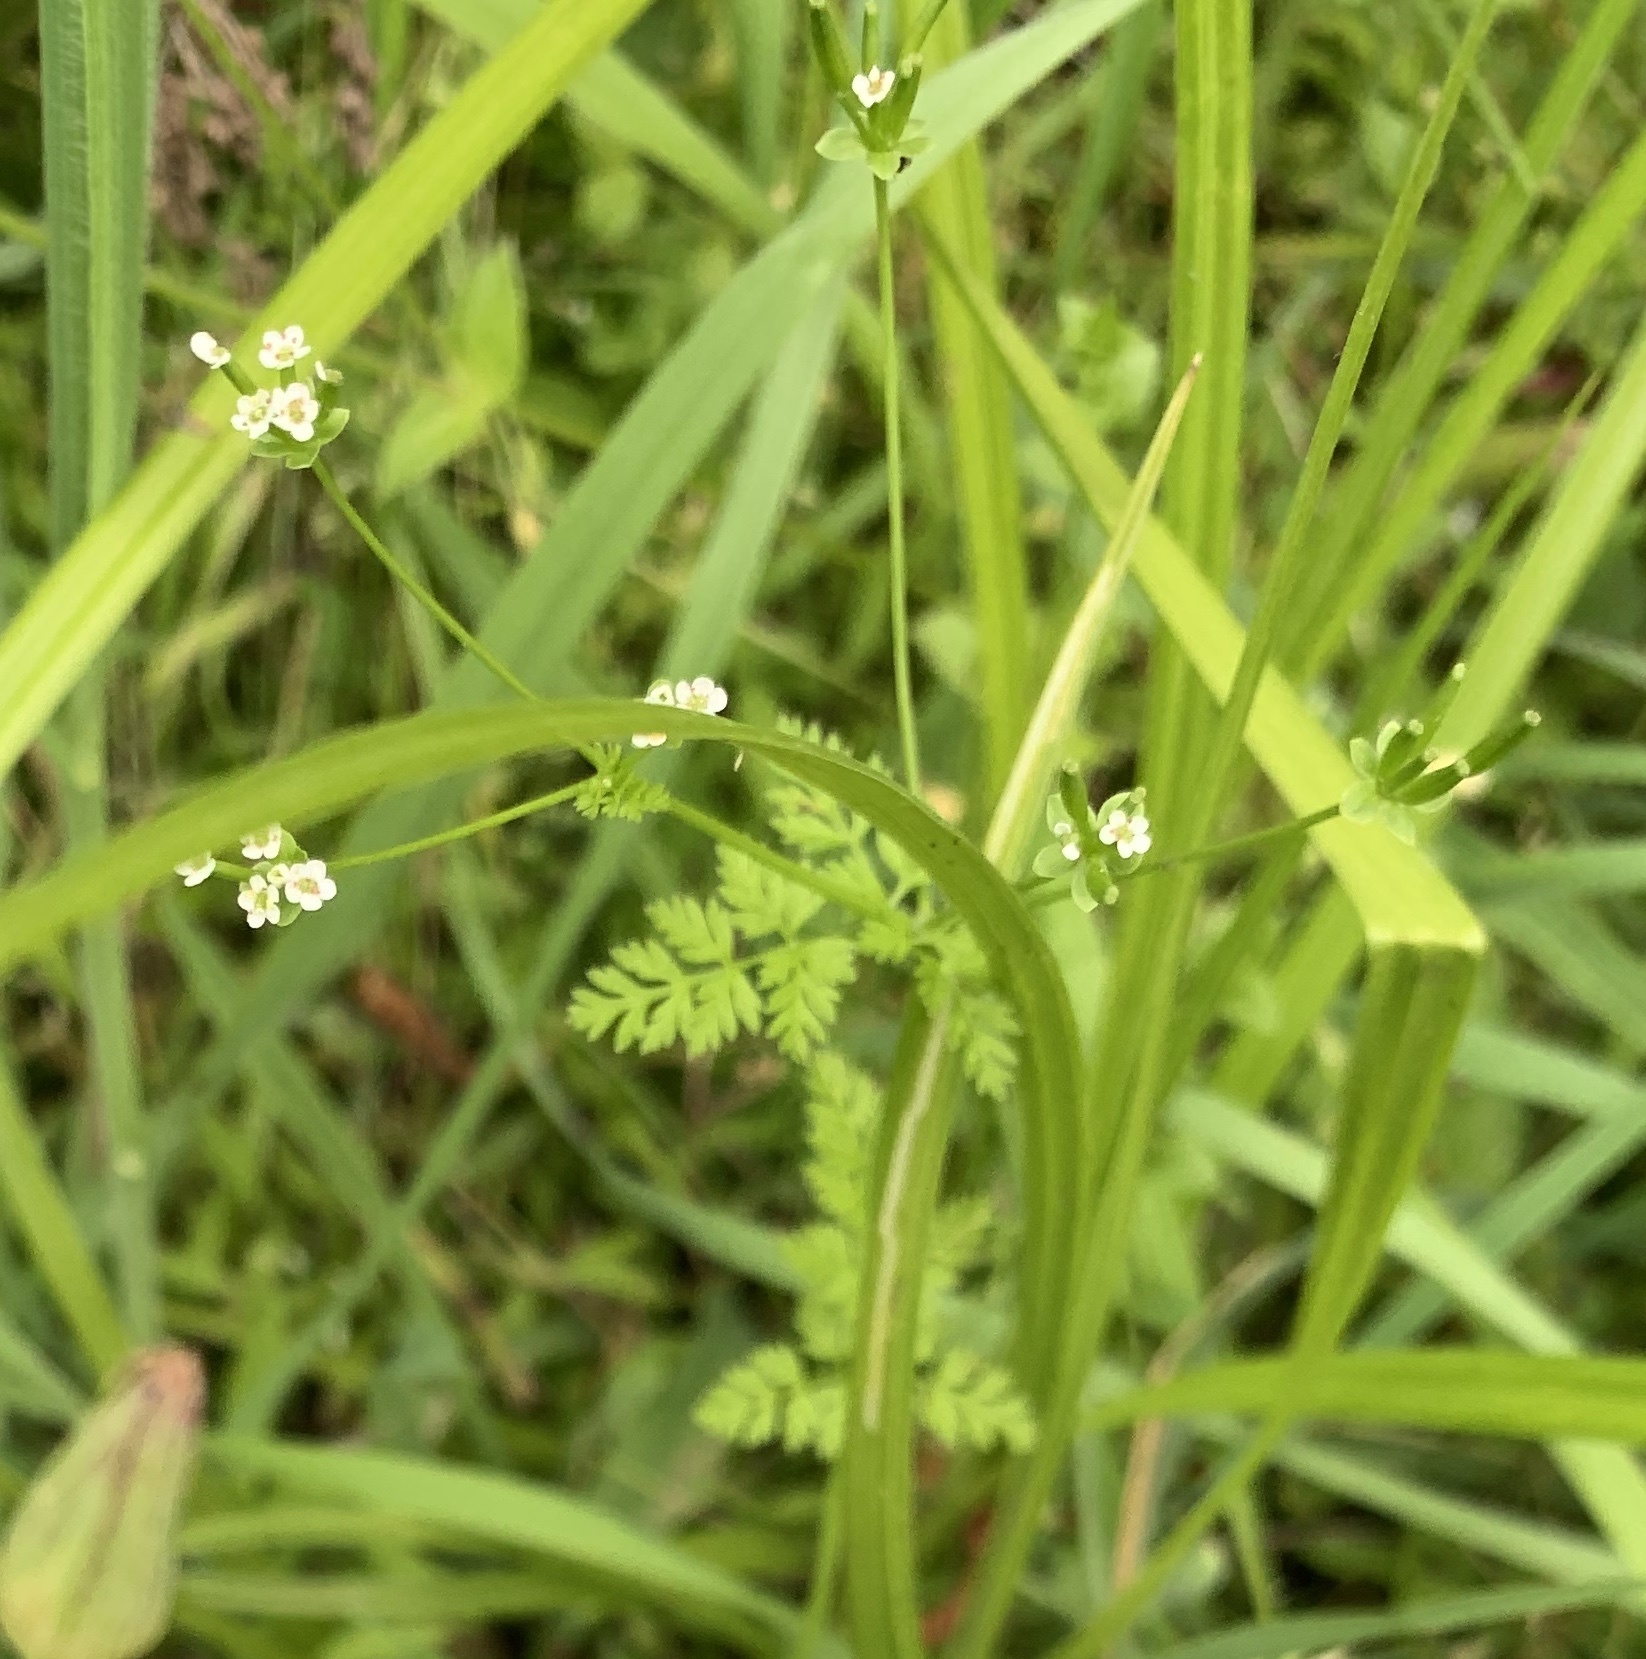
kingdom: Plantae
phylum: Tracheophyta
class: Magnoliopsida
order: Apiales
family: Apiaceae
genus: Chaerophyllum
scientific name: Chaerophyllum tainturieri
